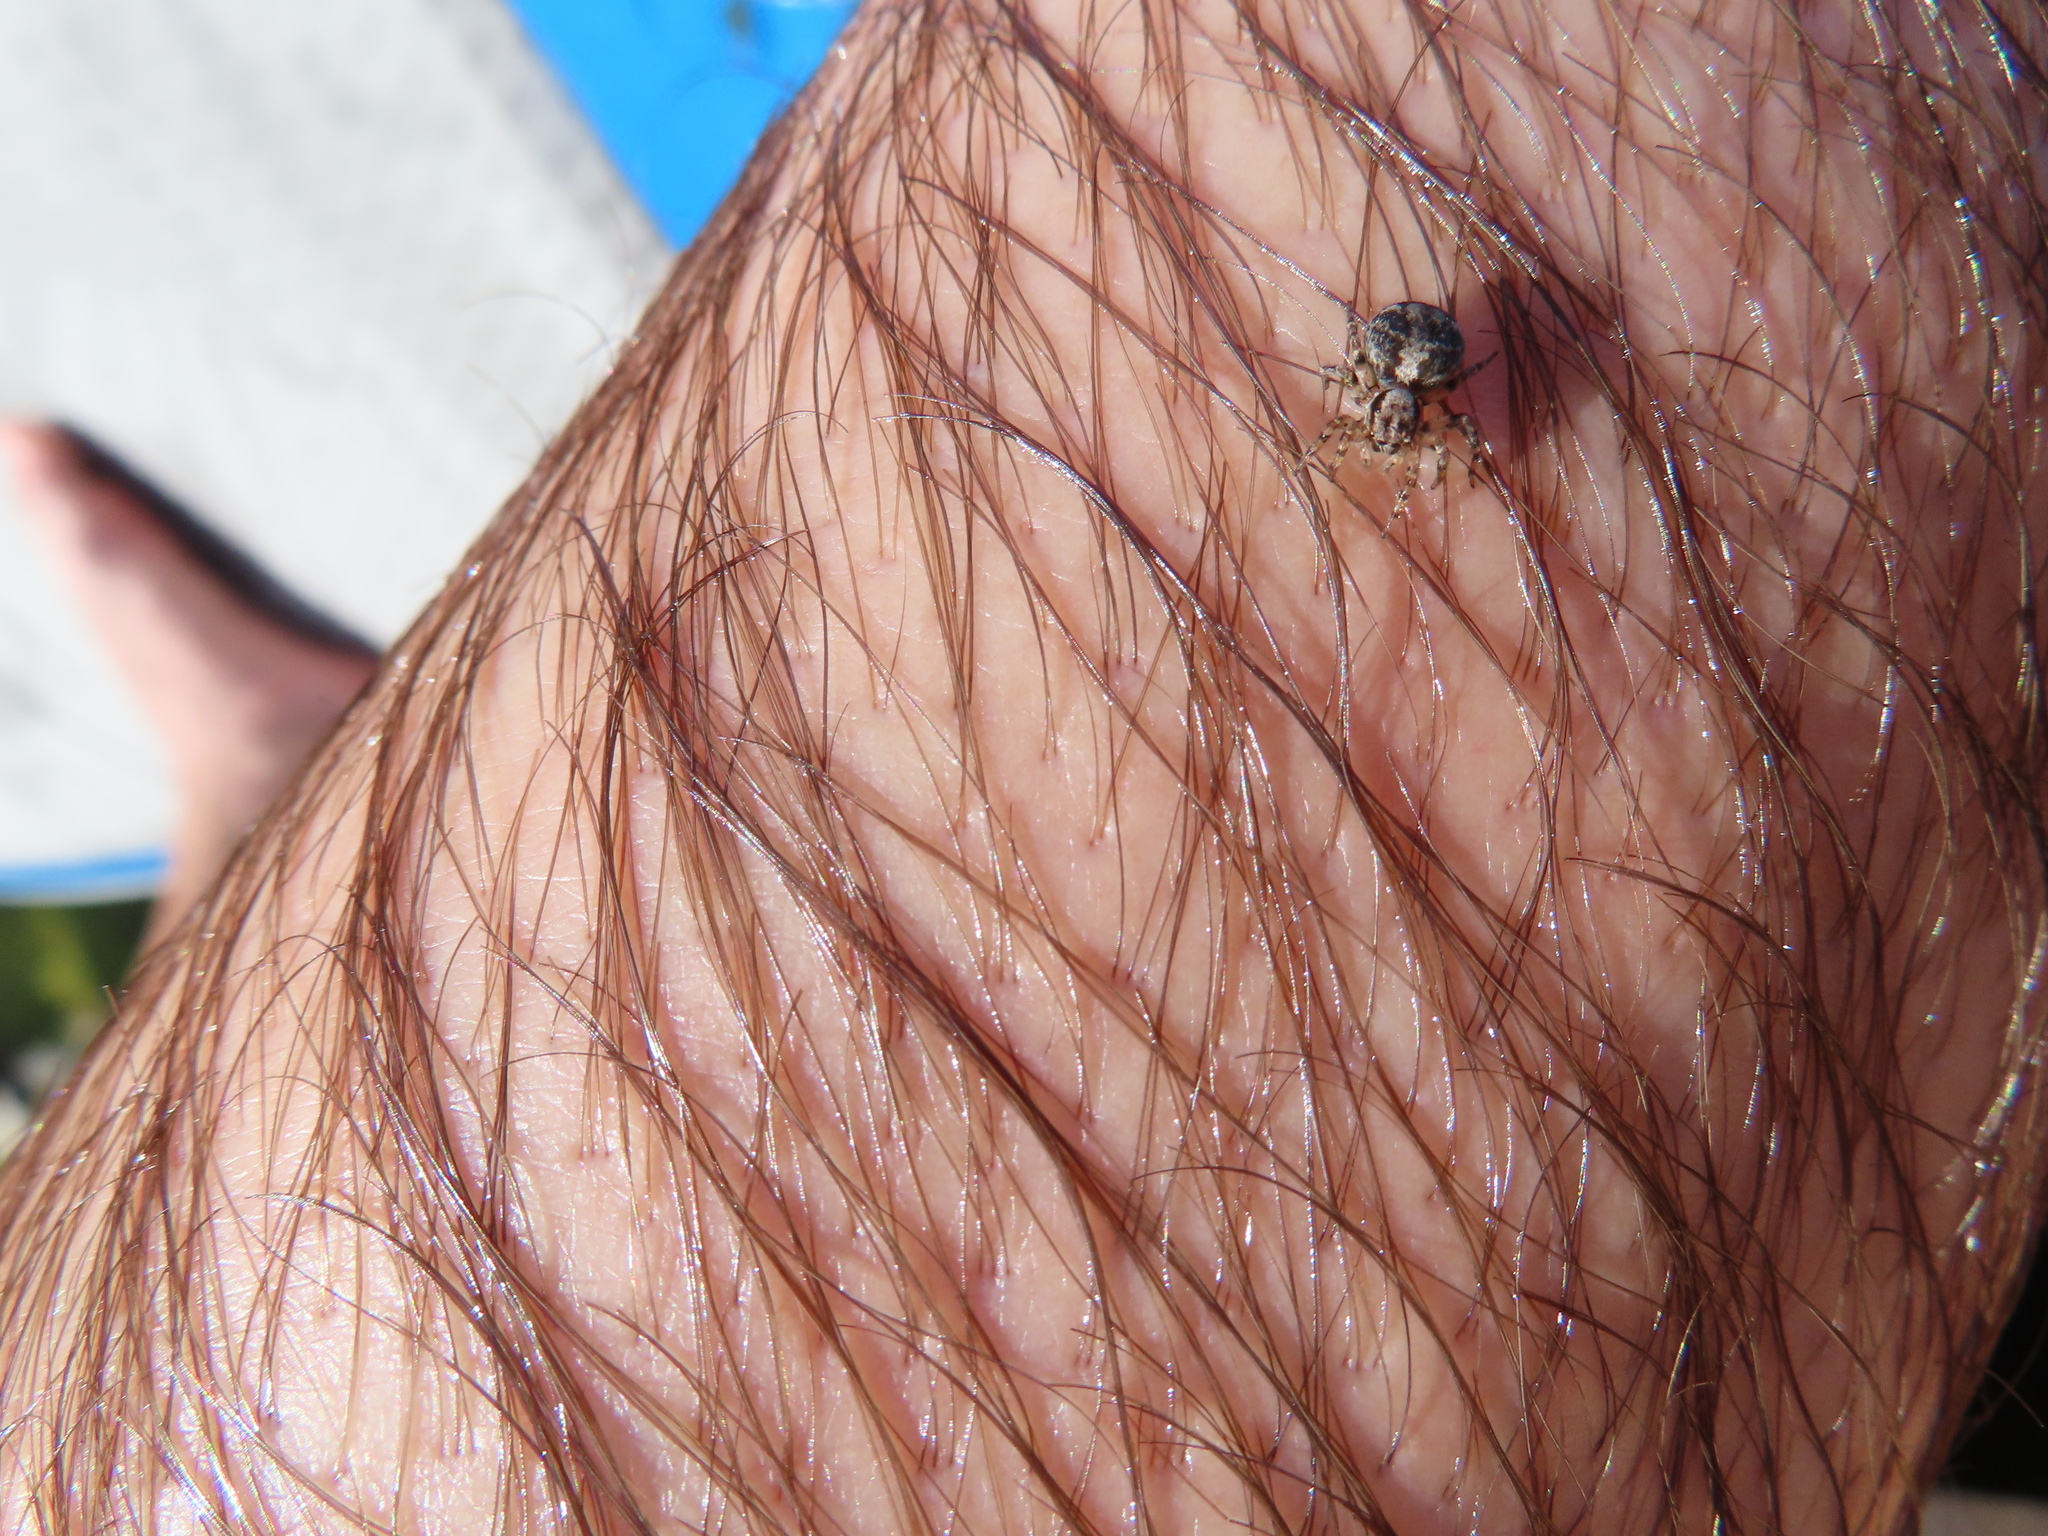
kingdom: Animalia
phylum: Arthropoda
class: Arachnida
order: Araneae
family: Salticidae
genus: Naphrys
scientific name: Naphrys pulex
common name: Flea jumping spider
